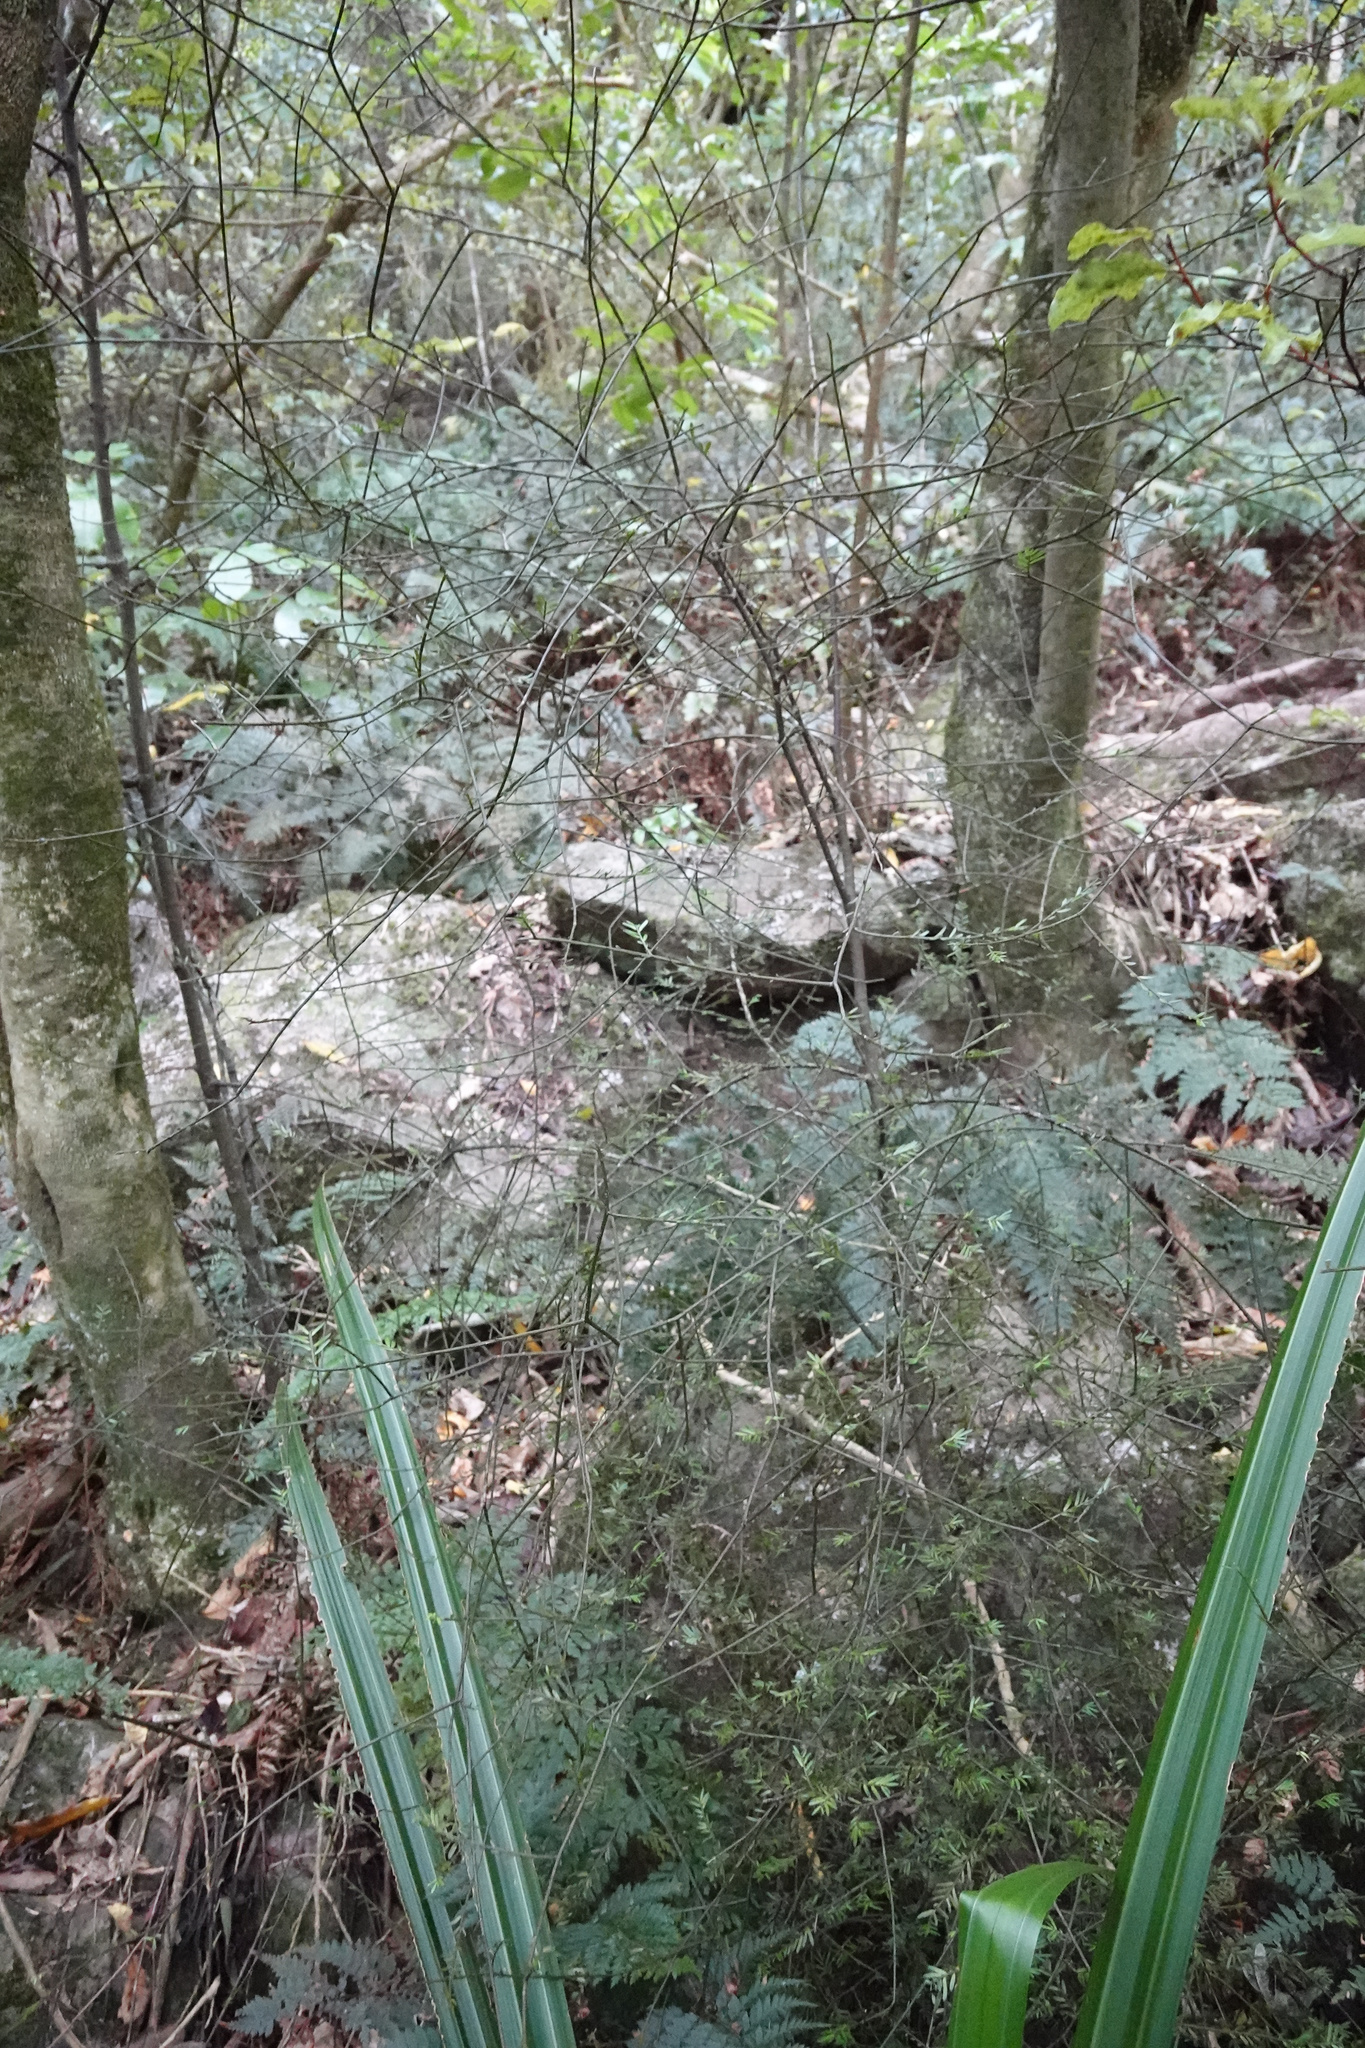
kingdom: Plantae
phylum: Tracheophyta
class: Pinopsida
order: Pinales
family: Podocarpaceae
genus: Prumnopitys
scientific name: Prumnopitys taxifolia
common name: Matai
